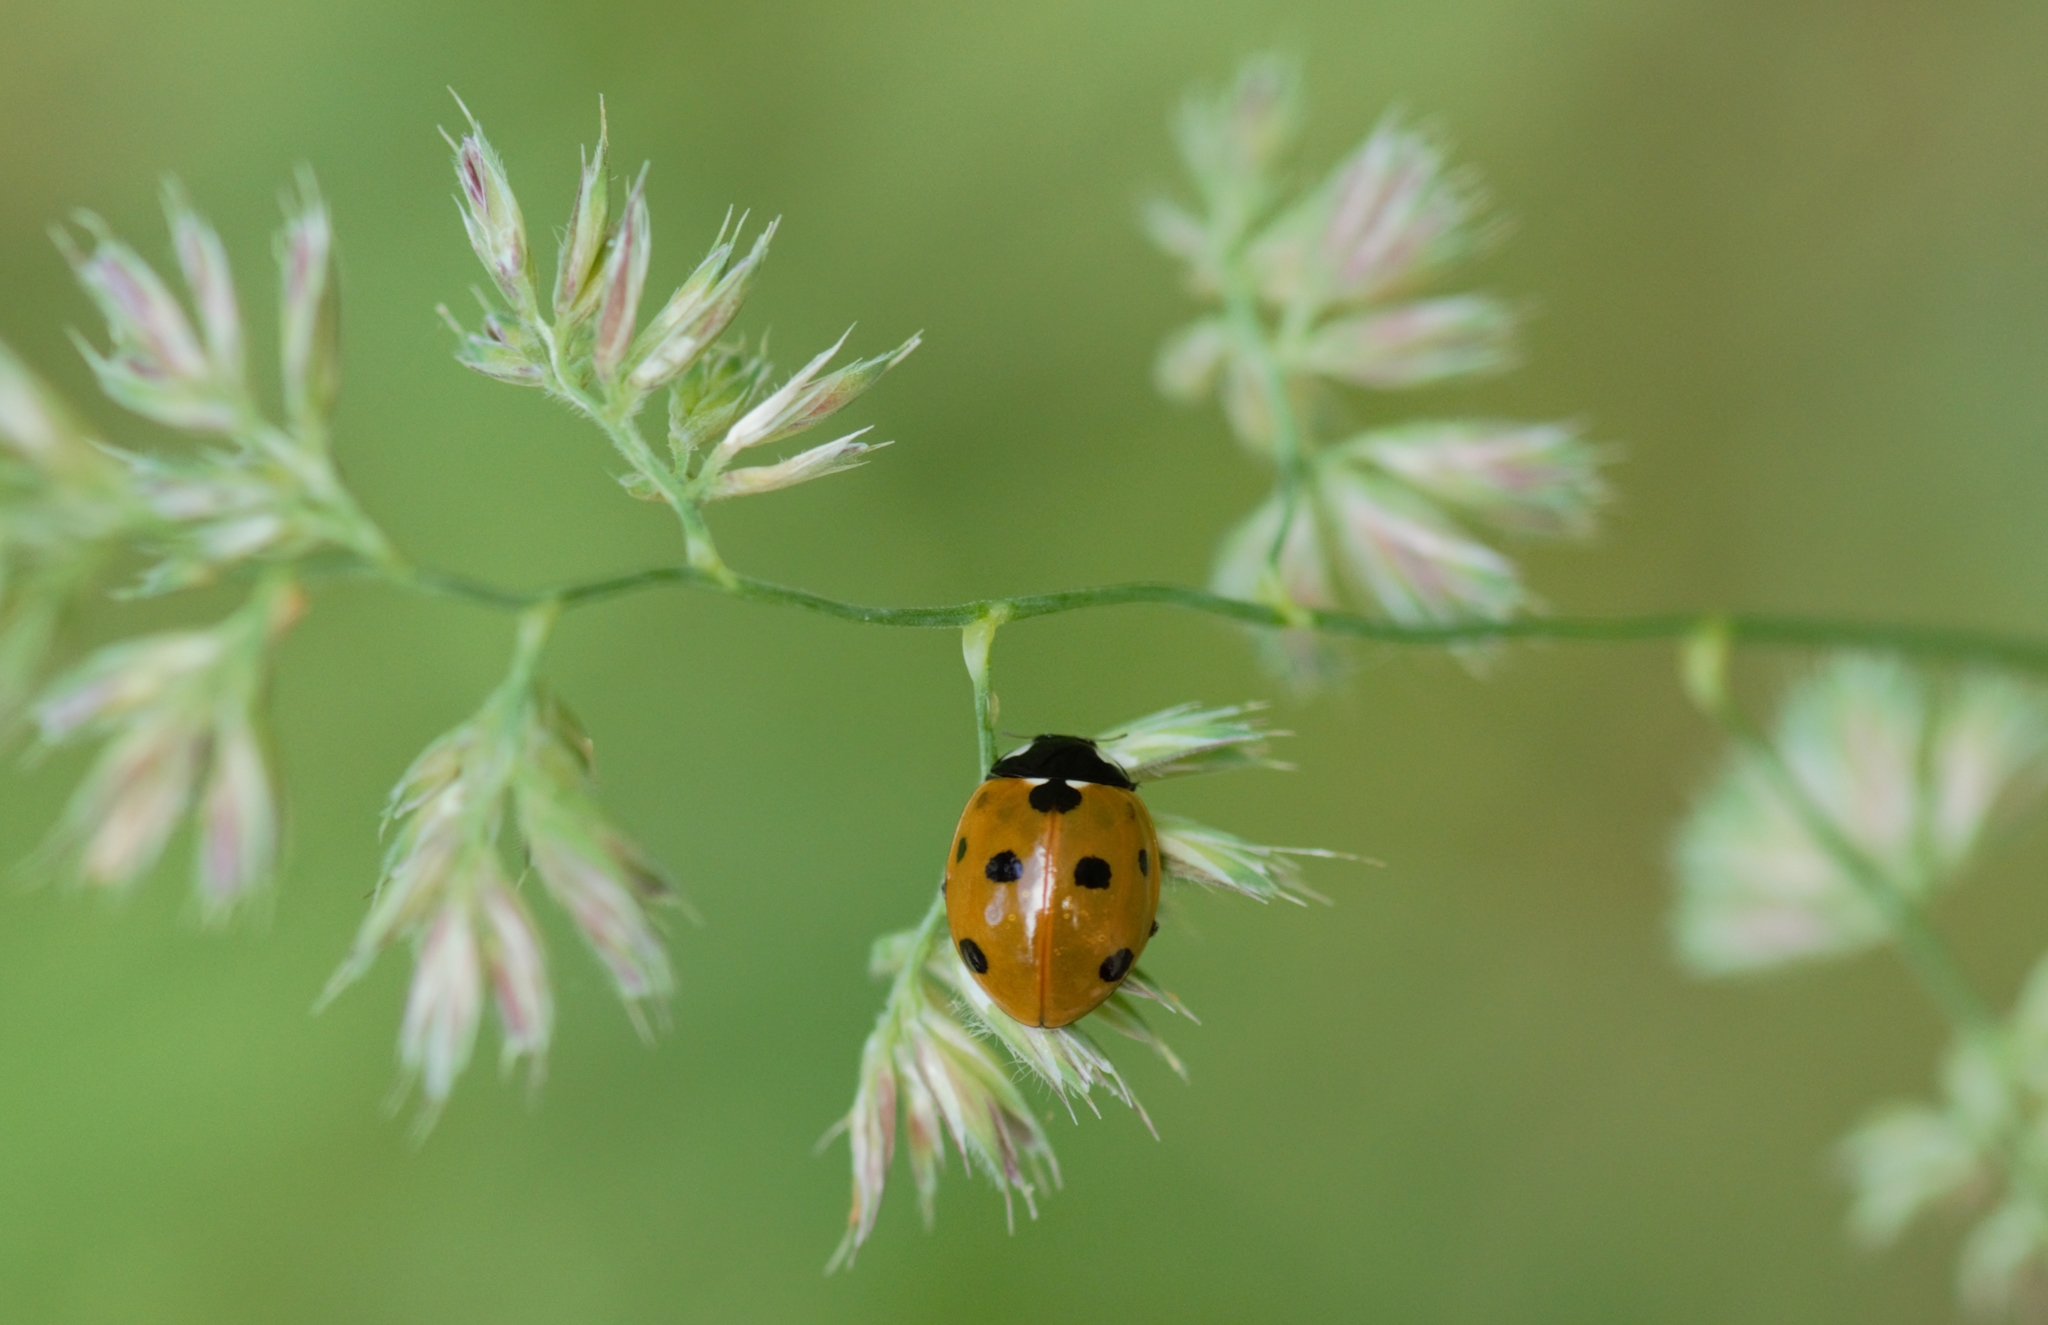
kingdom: Animalia
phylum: Arthropoda
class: Insecta
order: Coleoptera
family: Coccinellidae
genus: Coccinella
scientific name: Coccinella septempunctata
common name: Sevenspotted lady beetle
